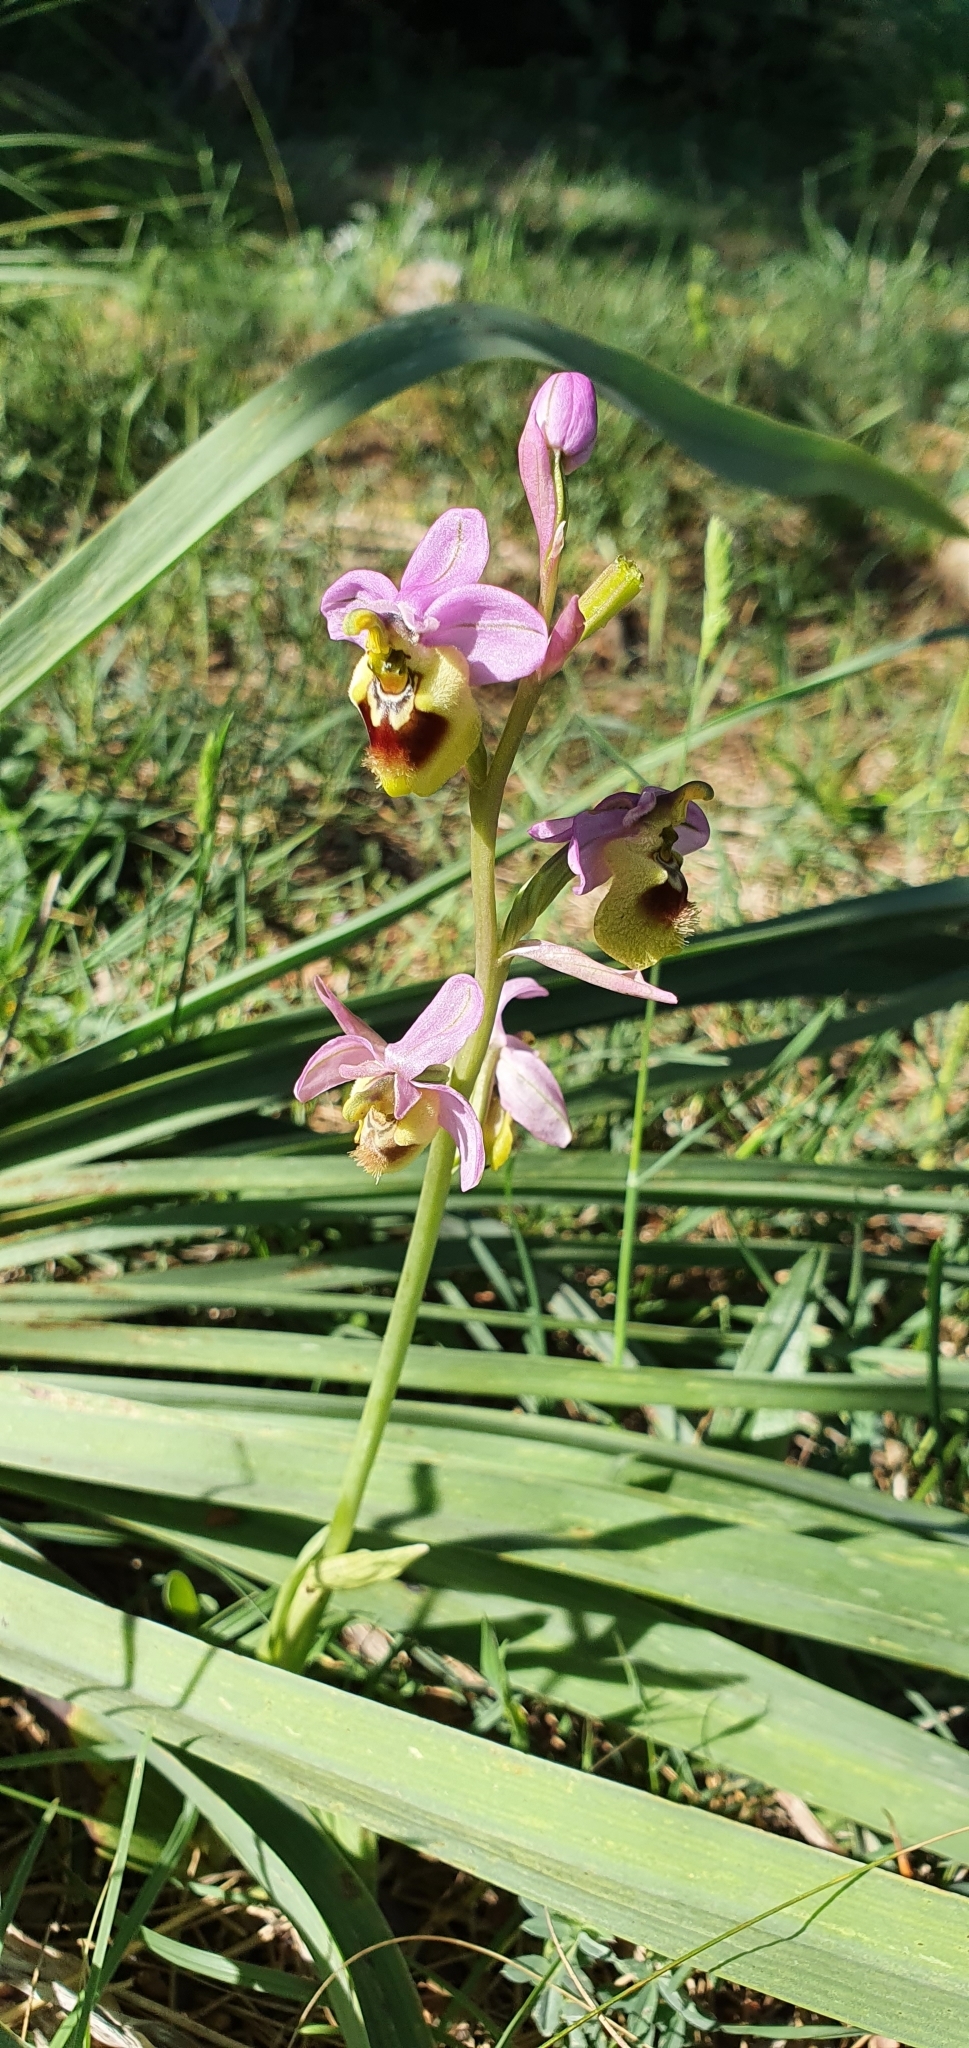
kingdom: Plantae
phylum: Tracheophyta
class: Liliopsida
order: Asparagales
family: Orchidaceae
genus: Ophrys
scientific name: Ophrys tenthredinifera
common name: Sawfly orchid
